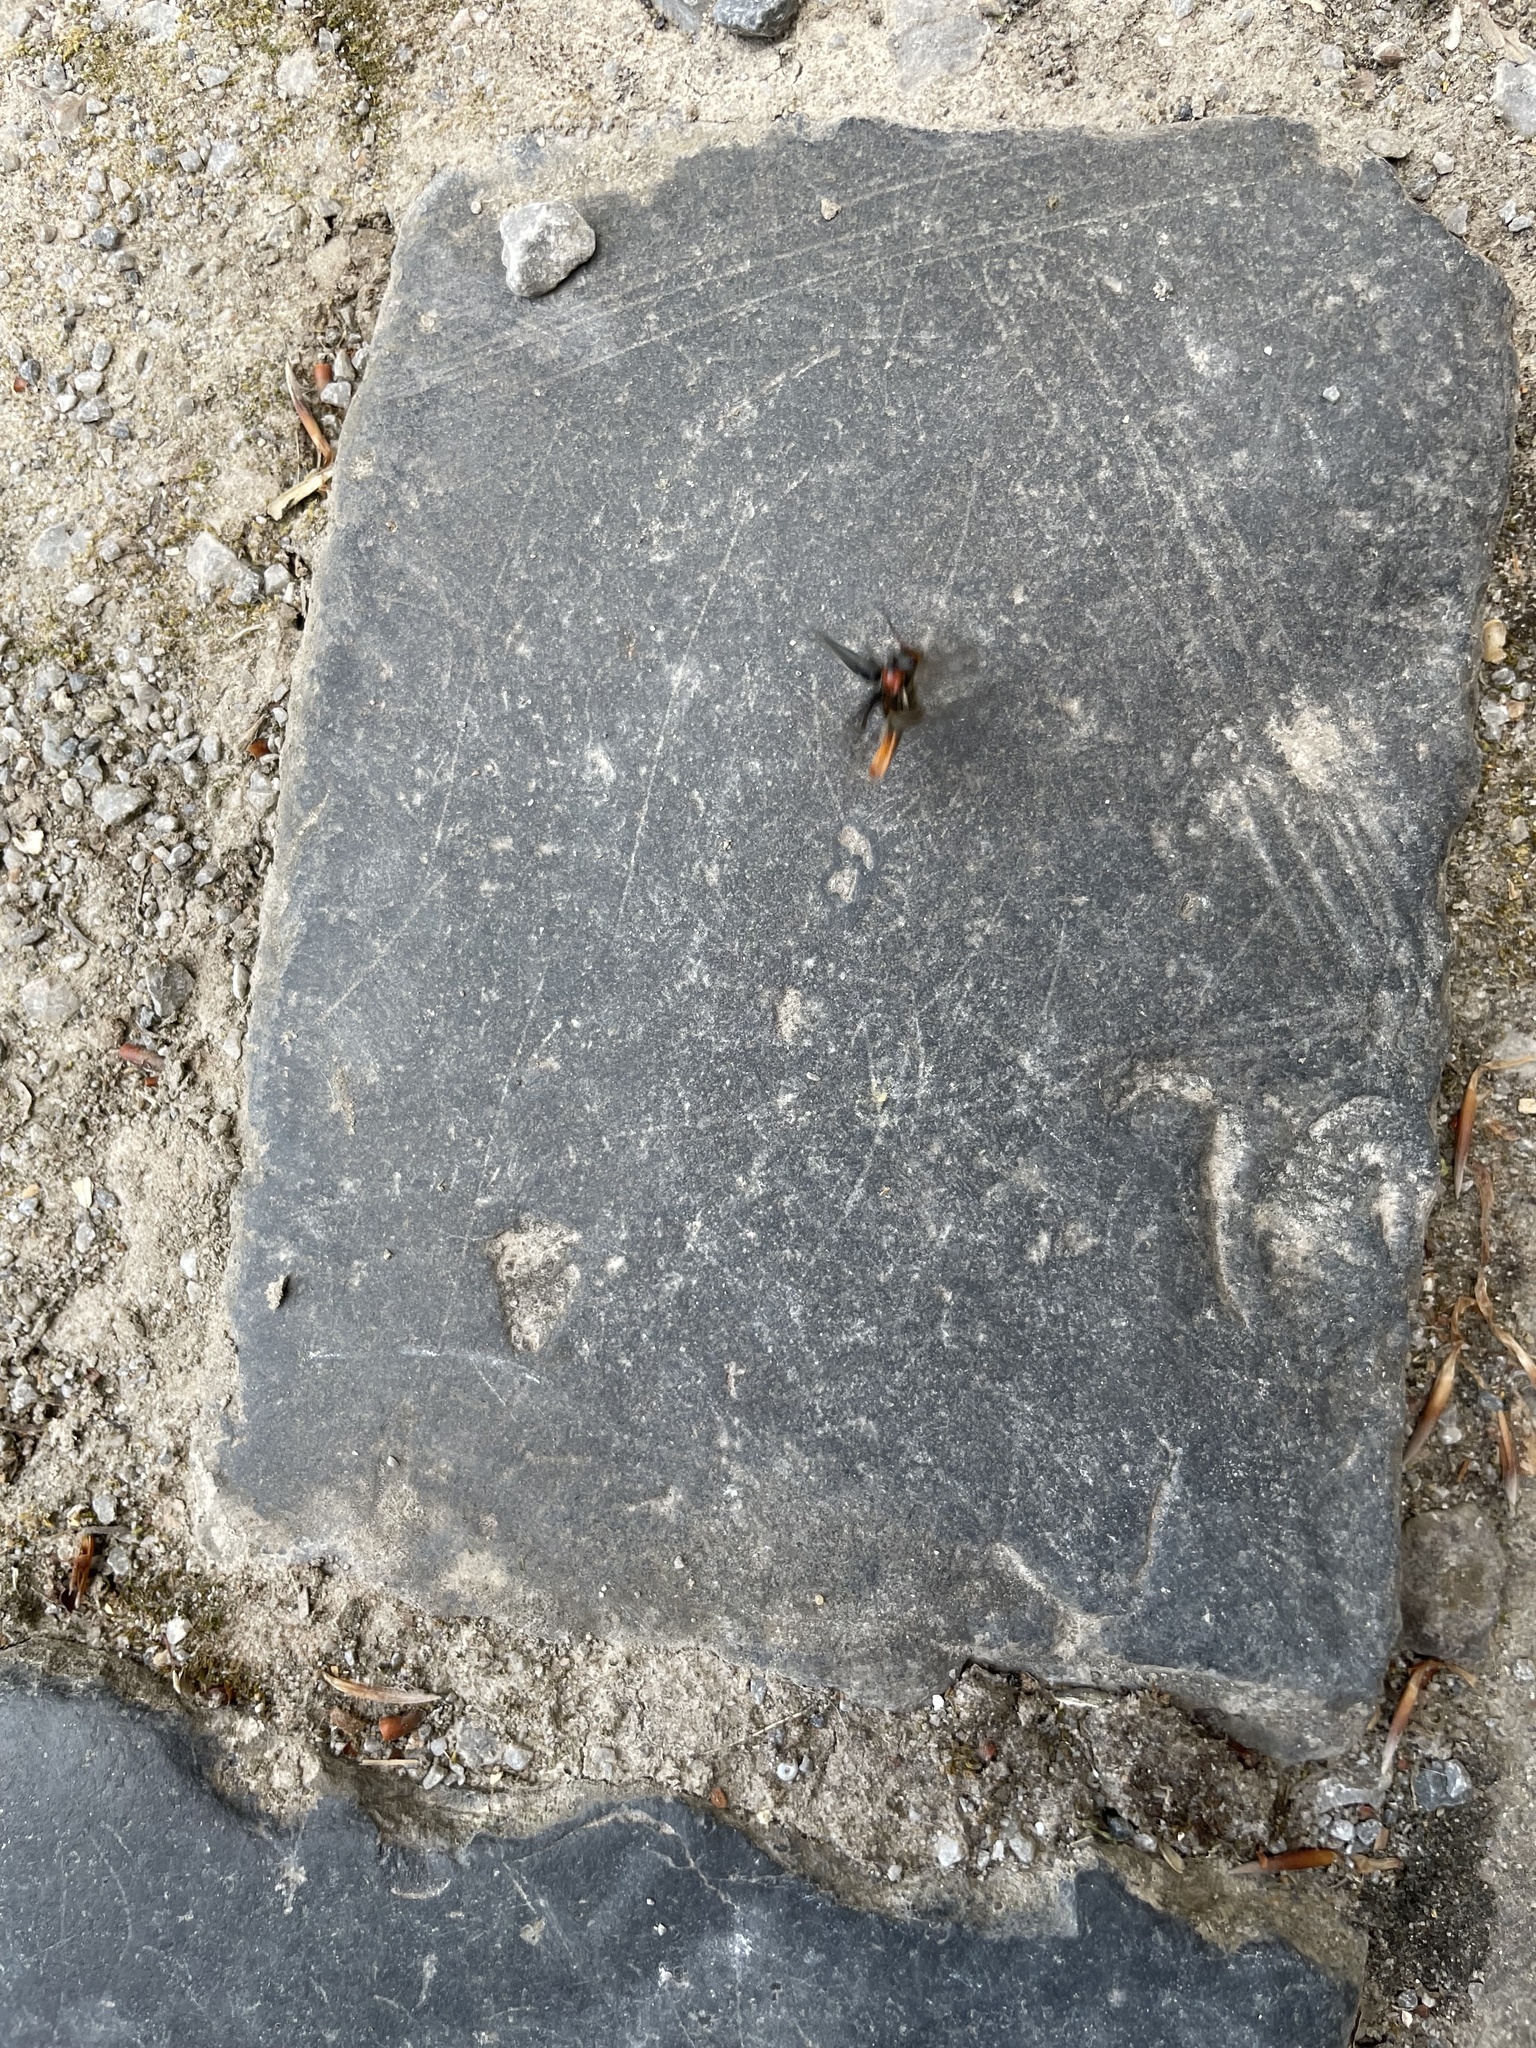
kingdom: Animalia
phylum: Arthropoda
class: Insecta
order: Coleoptera
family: Cantharidae
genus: Cantharis
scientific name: Cantharis fusca
